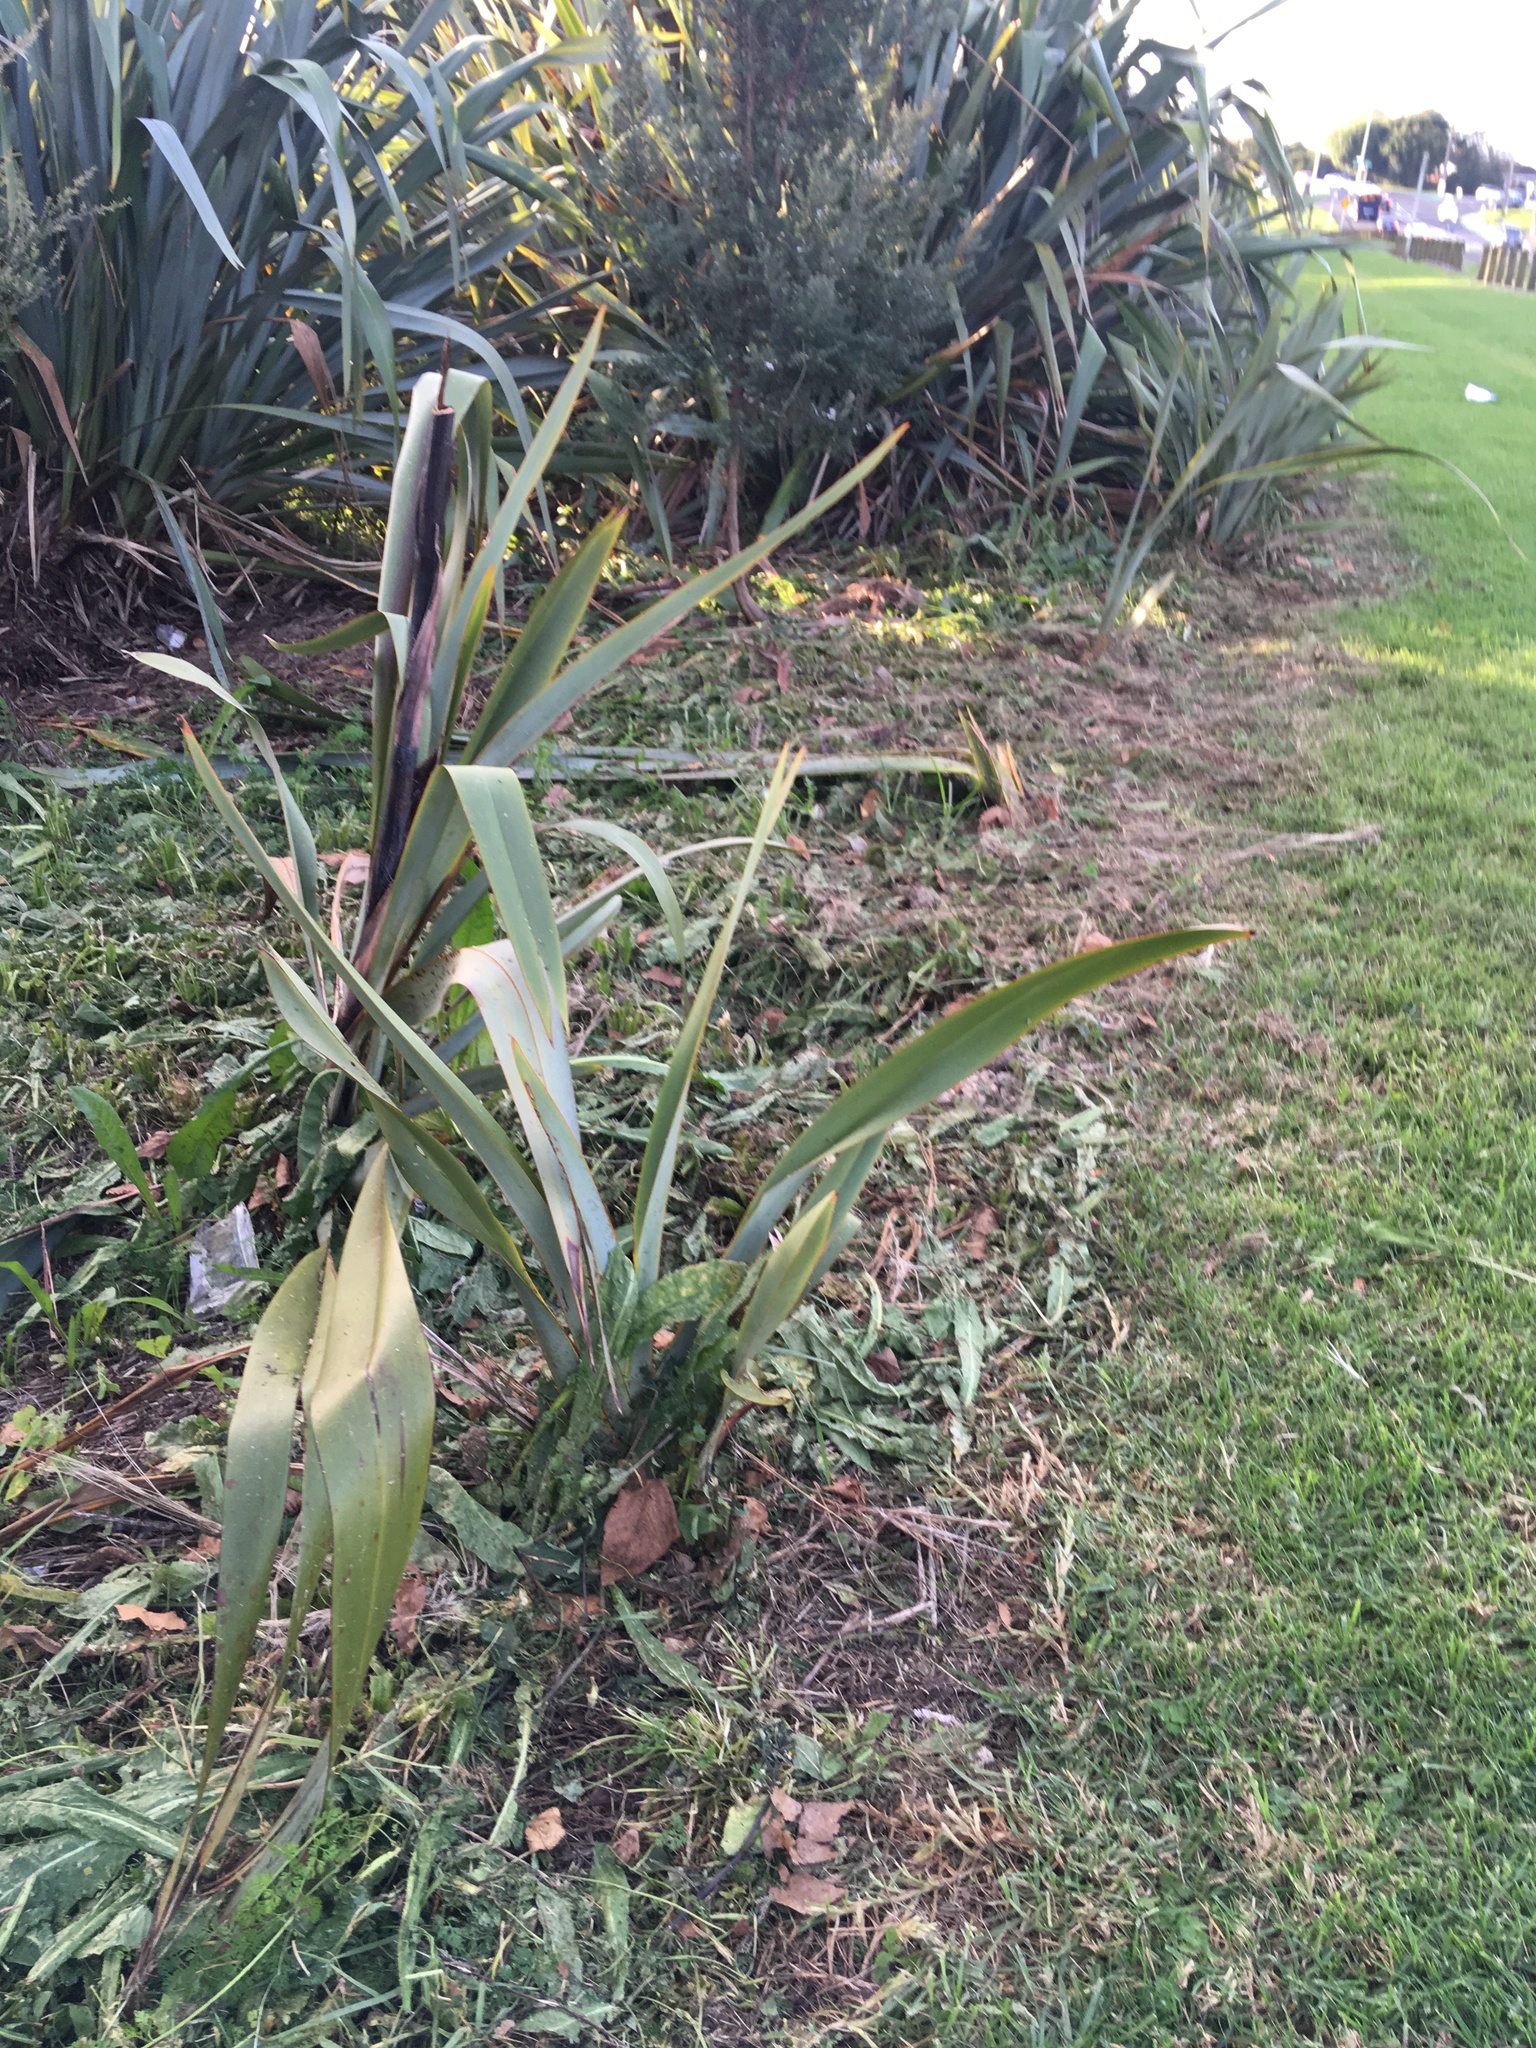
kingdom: Plantae
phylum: Tracheophyta
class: Liliopsida
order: Asparagales
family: Asphodelaceae
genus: Phormium
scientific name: Phormium tenax
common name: New zealand flax
